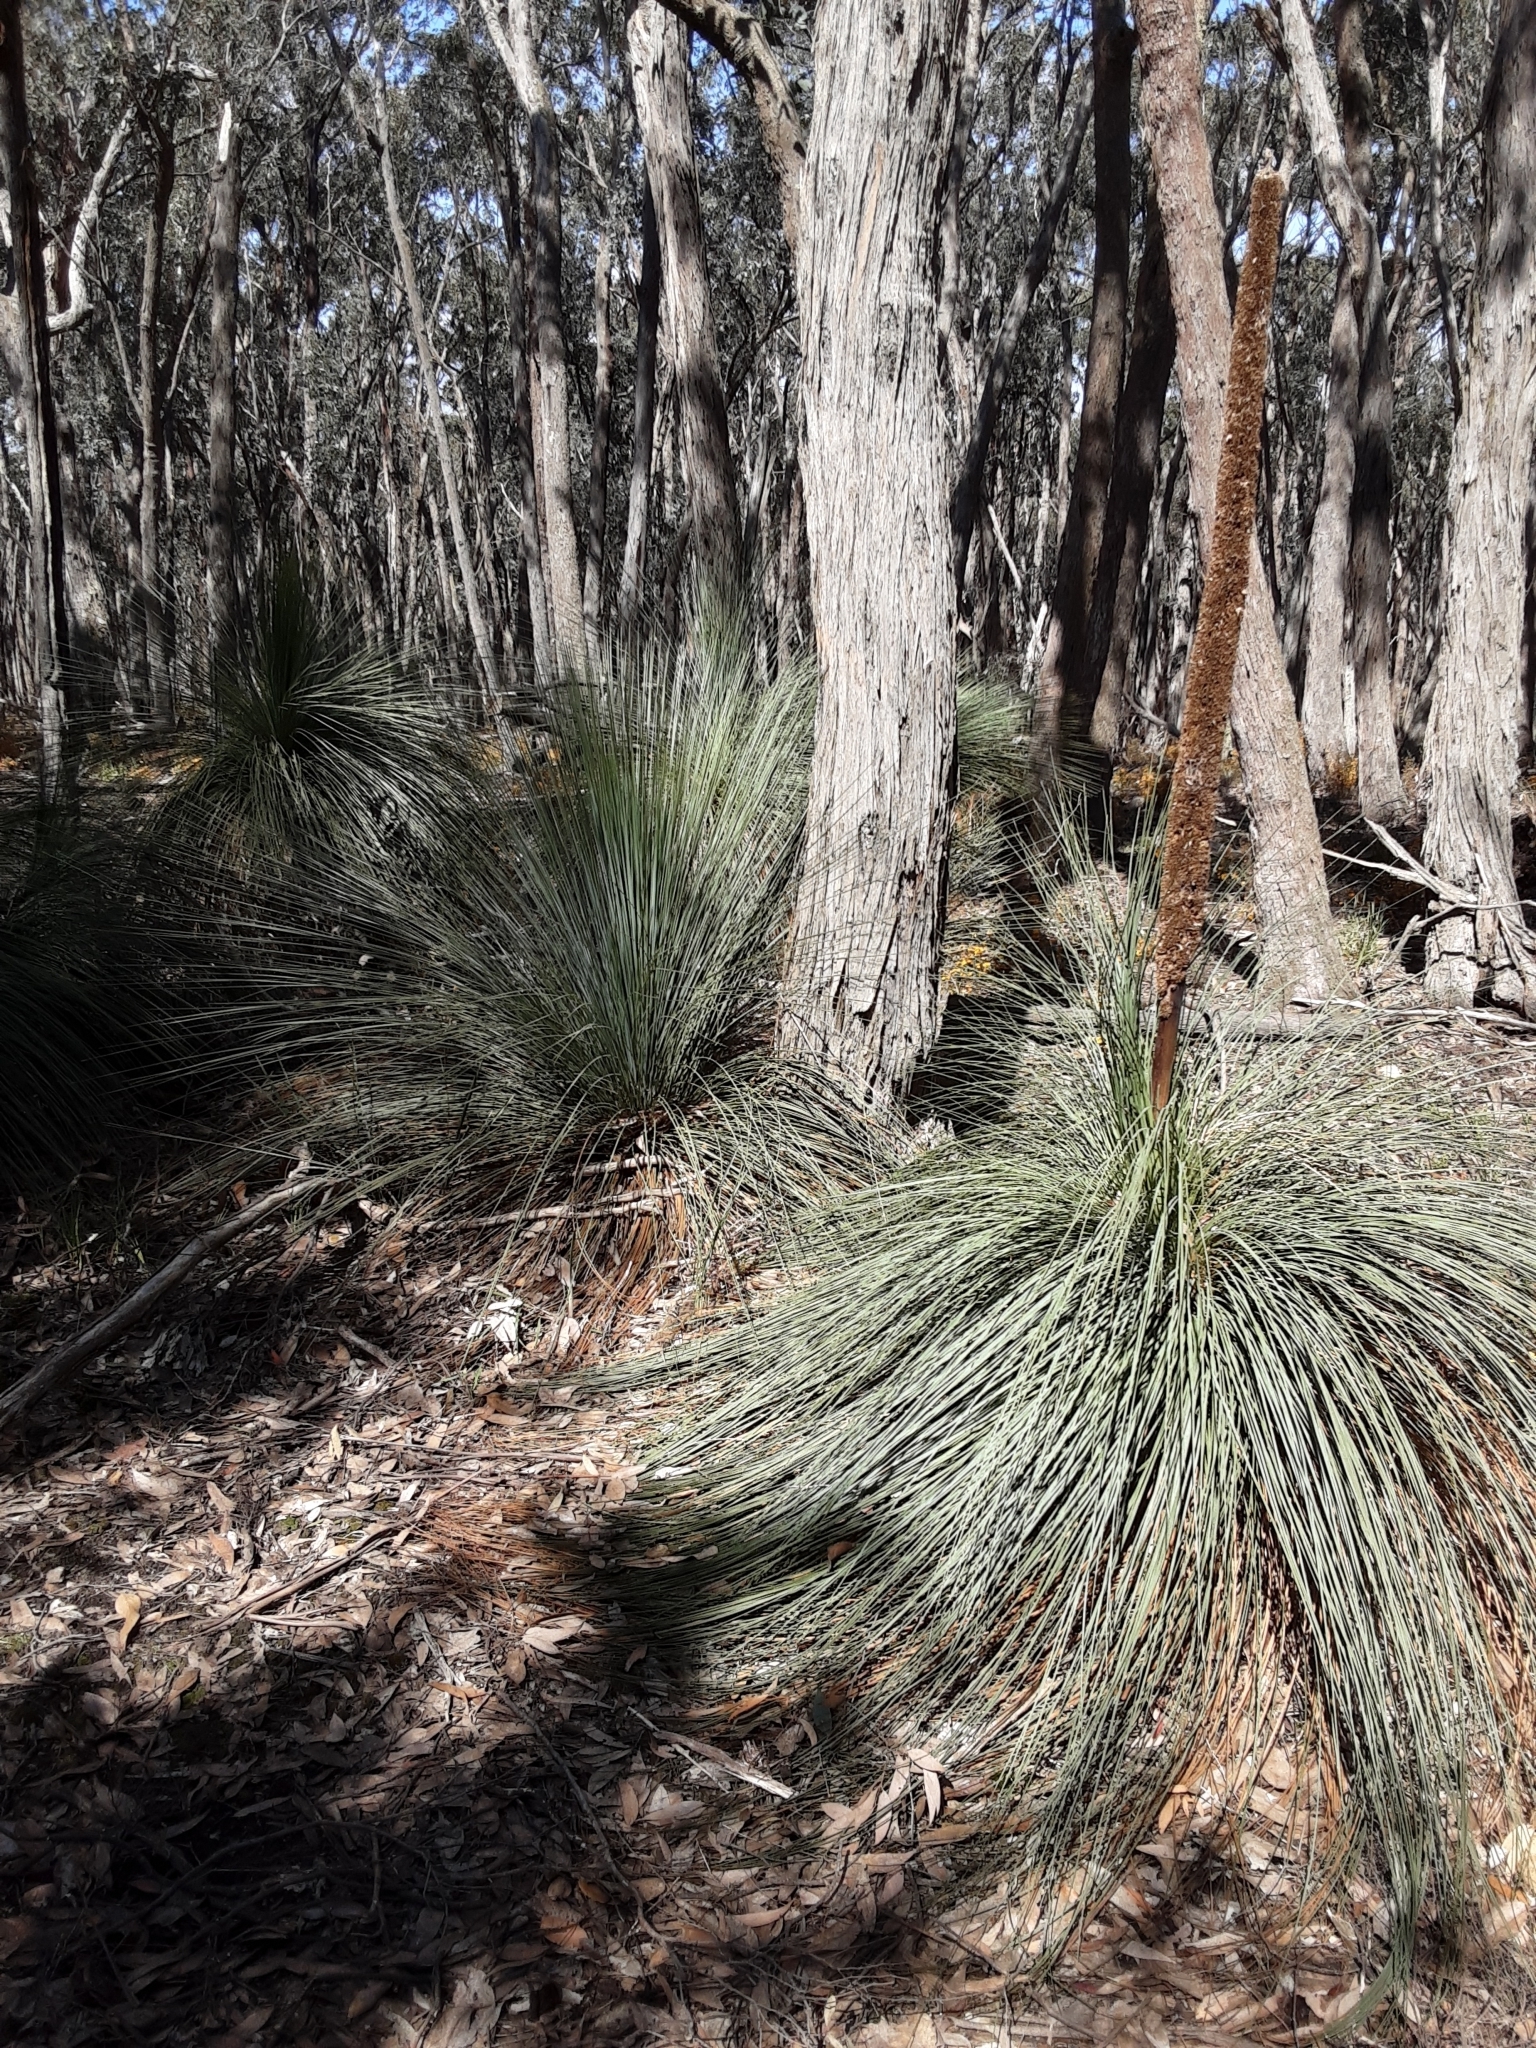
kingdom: Plantae
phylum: Tracheophyta
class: Liliopsida
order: Asparagales
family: Asphodelaceae
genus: Xanthorrhoea
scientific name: Xanthorrhoea australis
